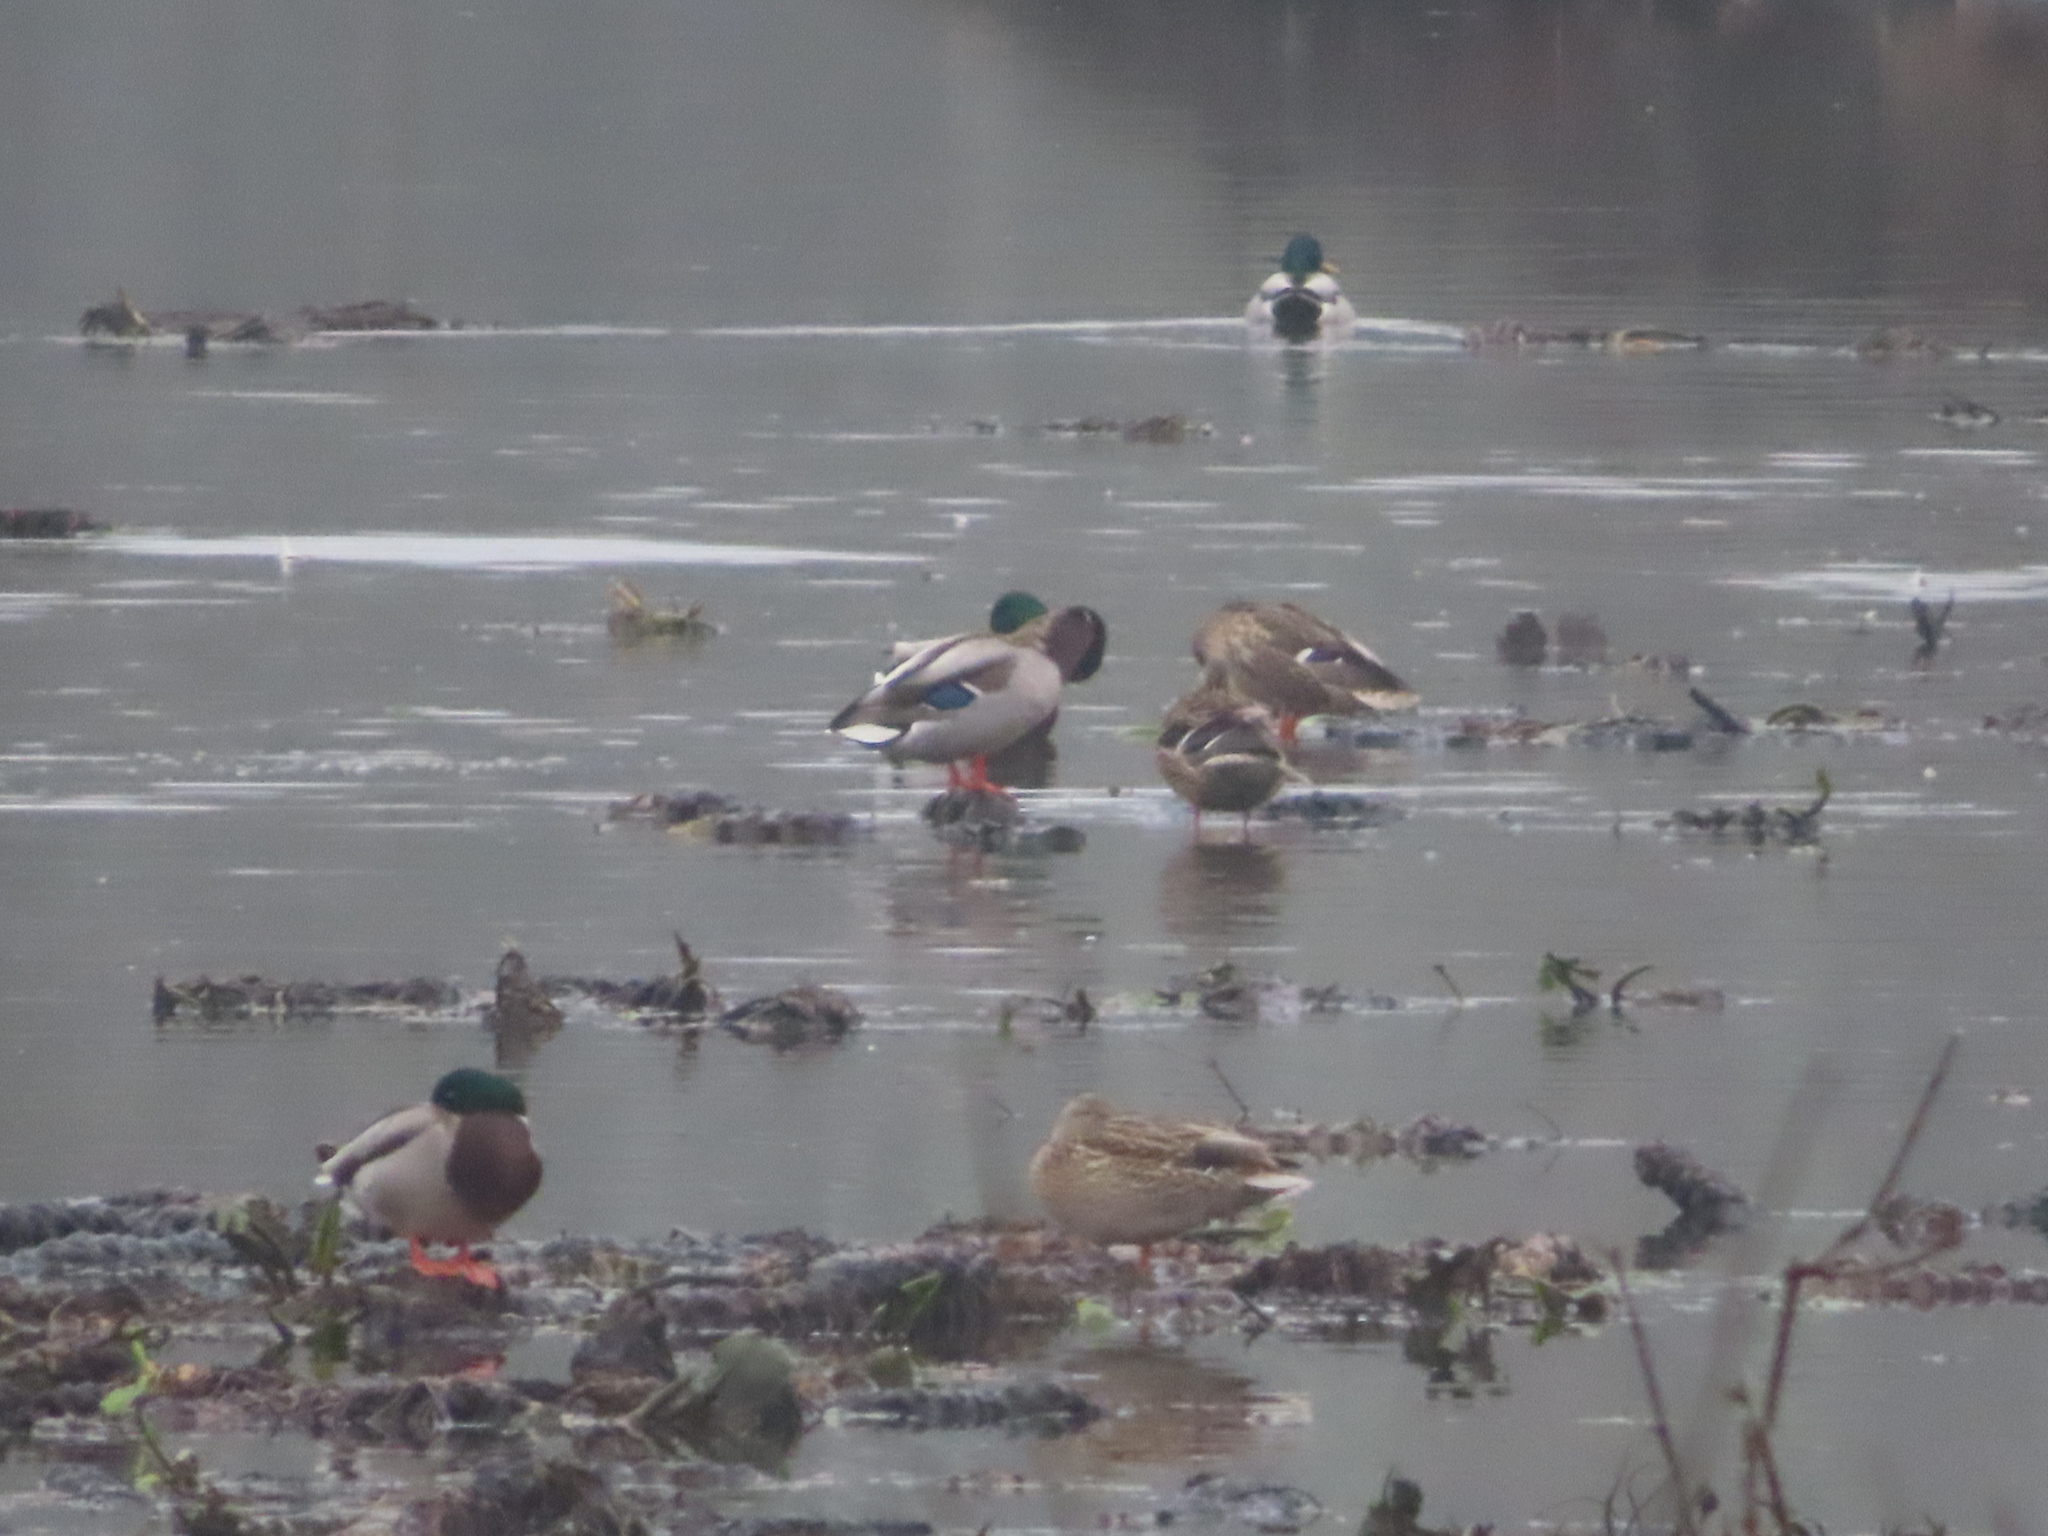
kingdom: Animalia
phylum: Chordata
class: Aves
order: Anseriformes
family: Anatidae
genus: Anas
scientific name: Anas platyrhynchos
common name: Mallard
